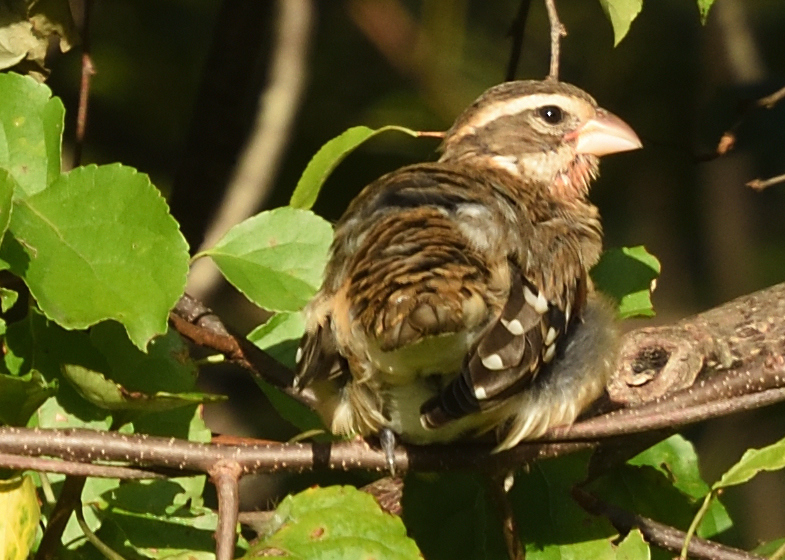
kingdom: Animalia
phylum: Chordata
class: Aves
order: Passeriformes
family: Cardinalidae
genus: Pheucticus
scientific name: Pheucticus ludovicianus
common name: Rose-breasted grosbeak
